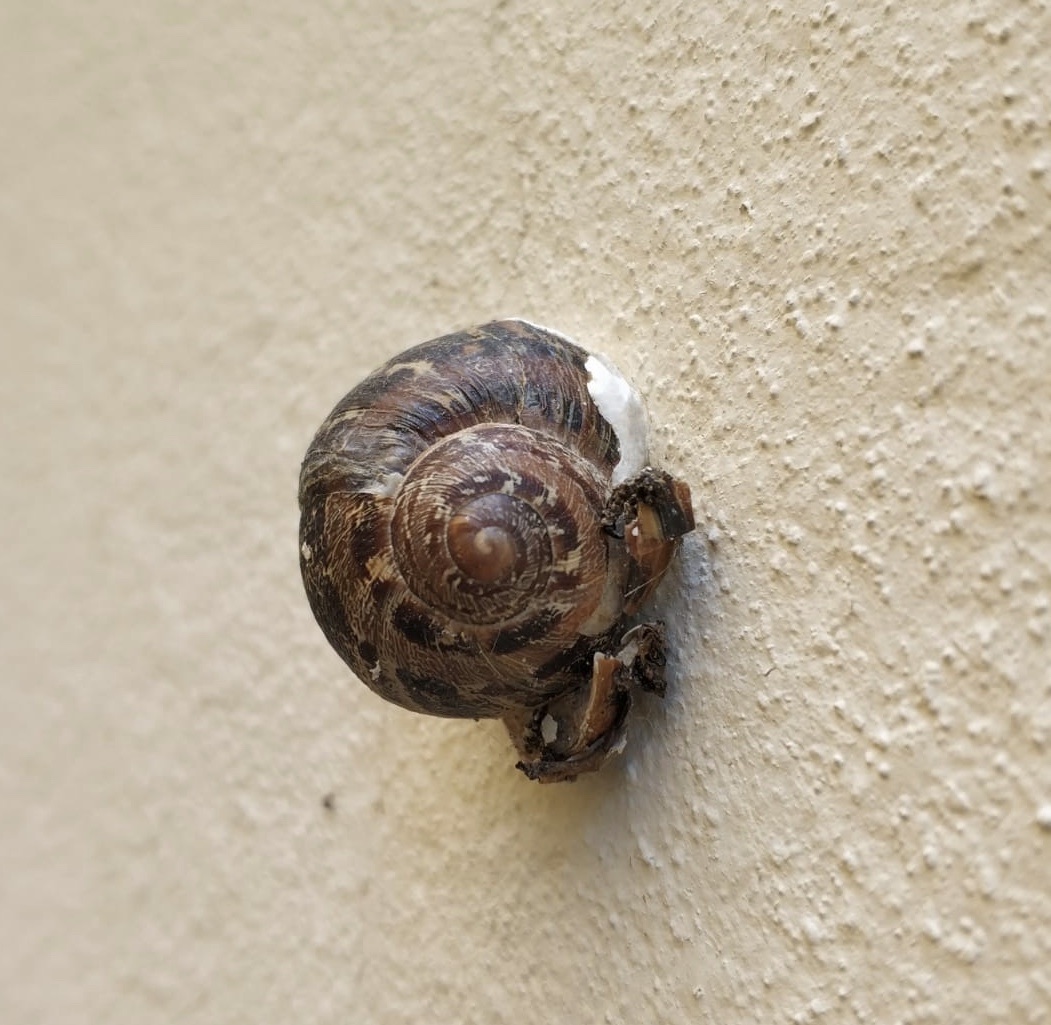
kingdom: Animalia
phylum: Mollusca
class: Gastropoda
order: Stylommatophora
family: Helicidae
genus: Cornu
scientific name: Cornu aspersum
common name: Brown garden snail
